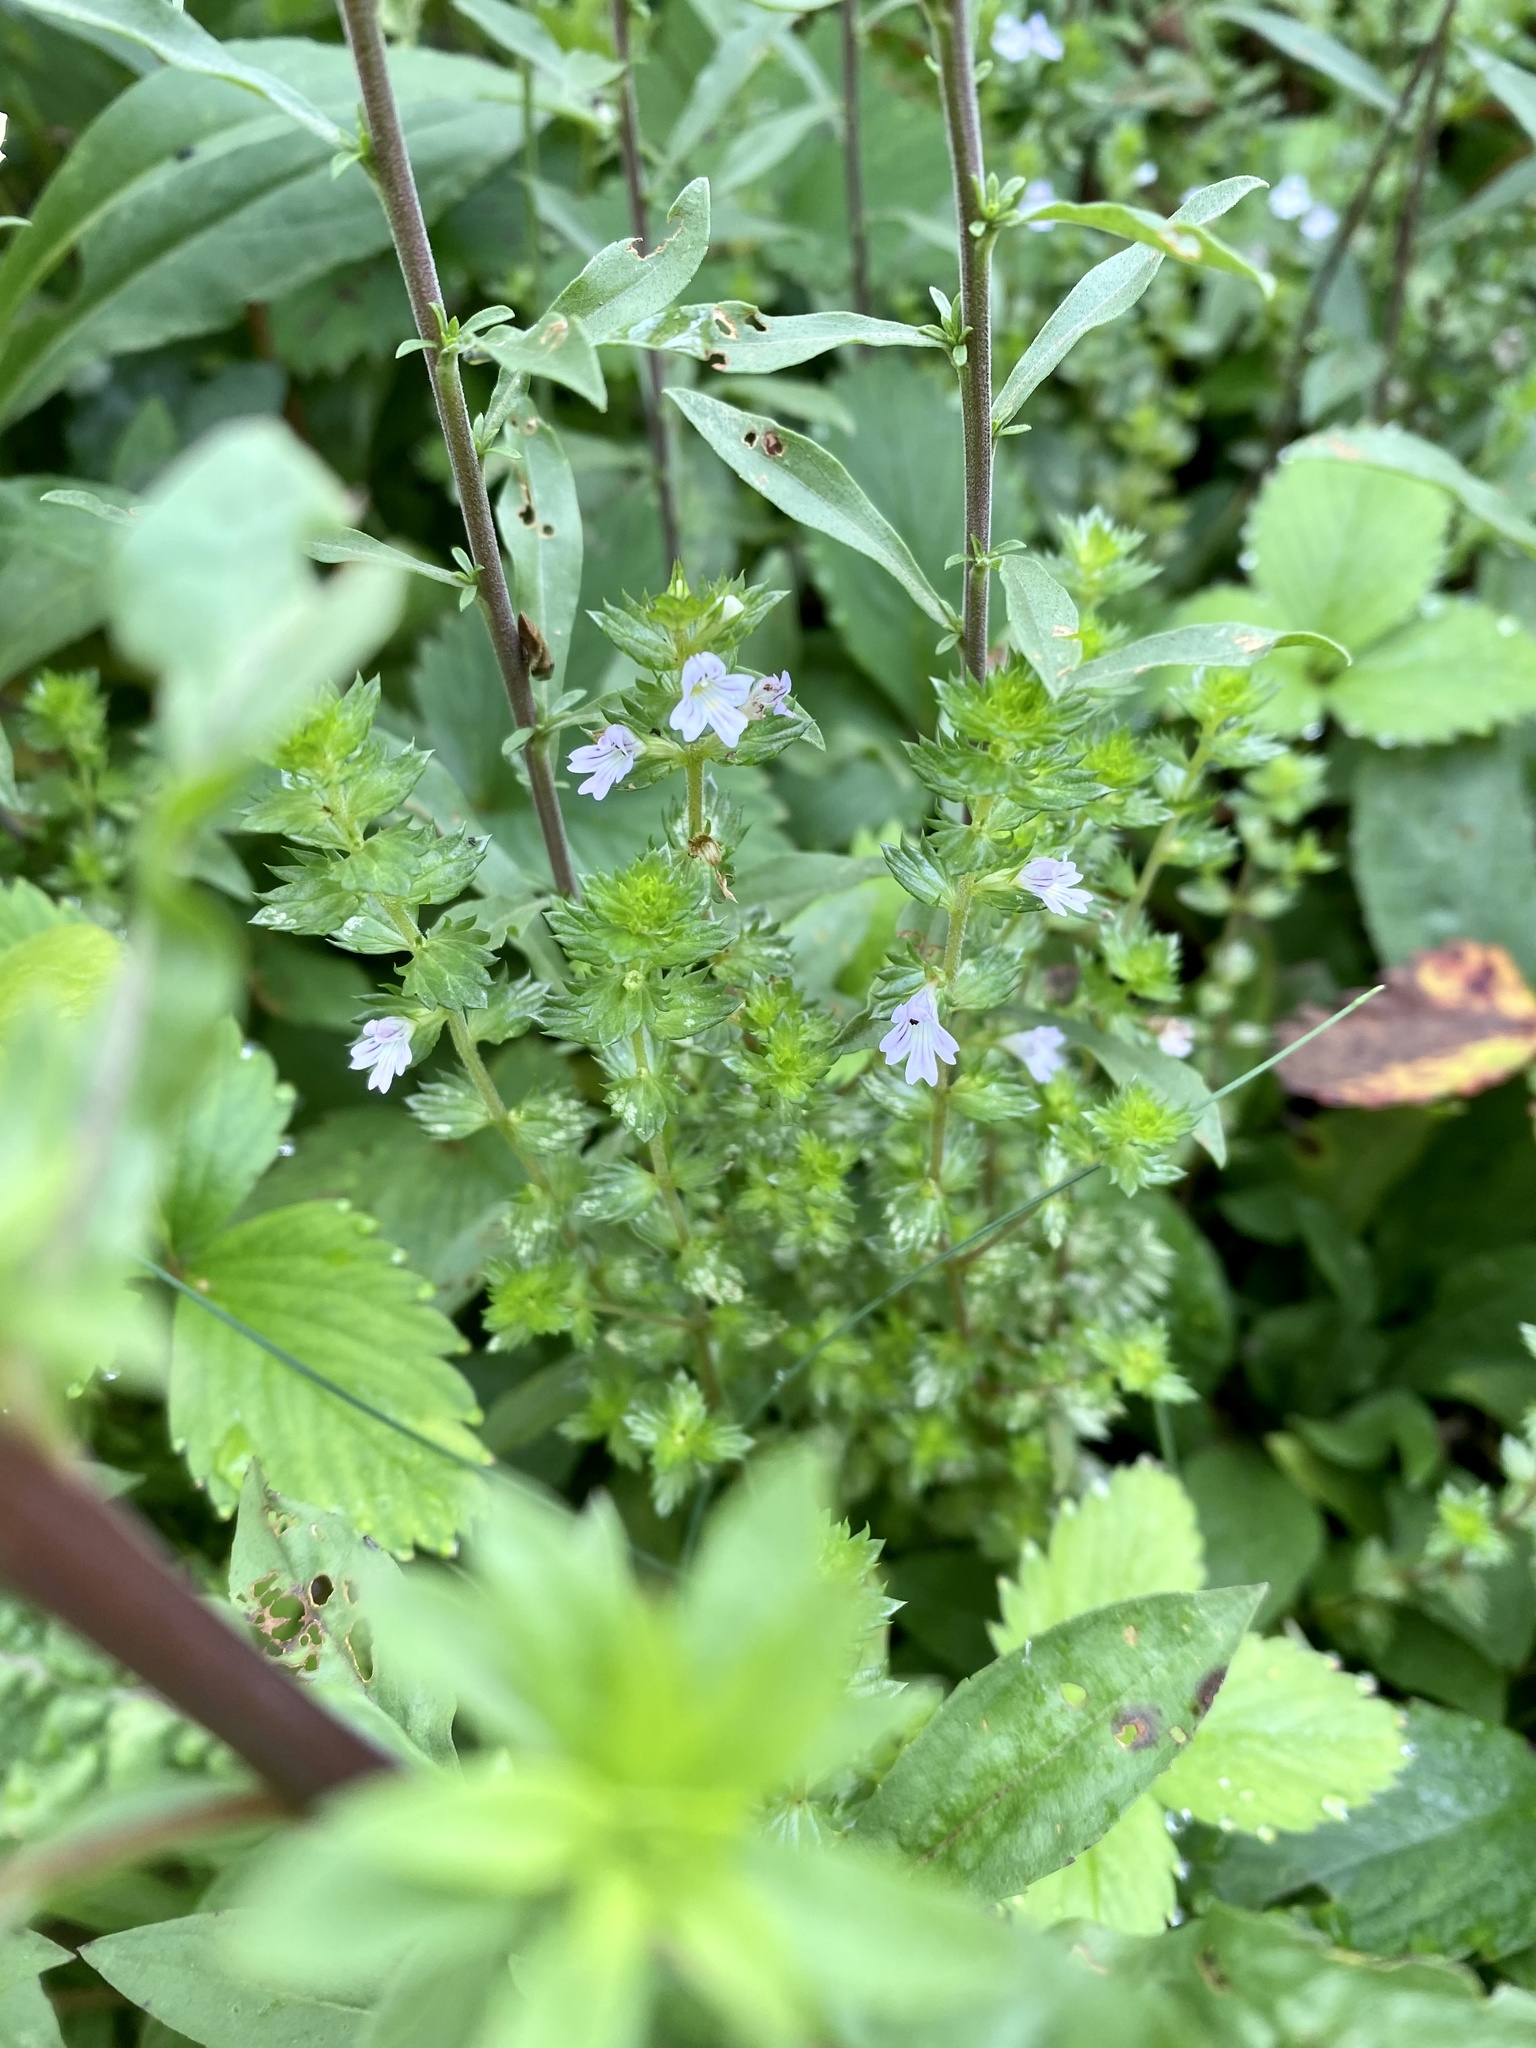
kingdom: Plantae
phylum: Tracheophyta
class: Magnoliopsida
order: Lamiales
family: Orobanchaceae
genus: Euphrasia
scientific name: Euphrasia nemorosa
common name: Common eyebright
